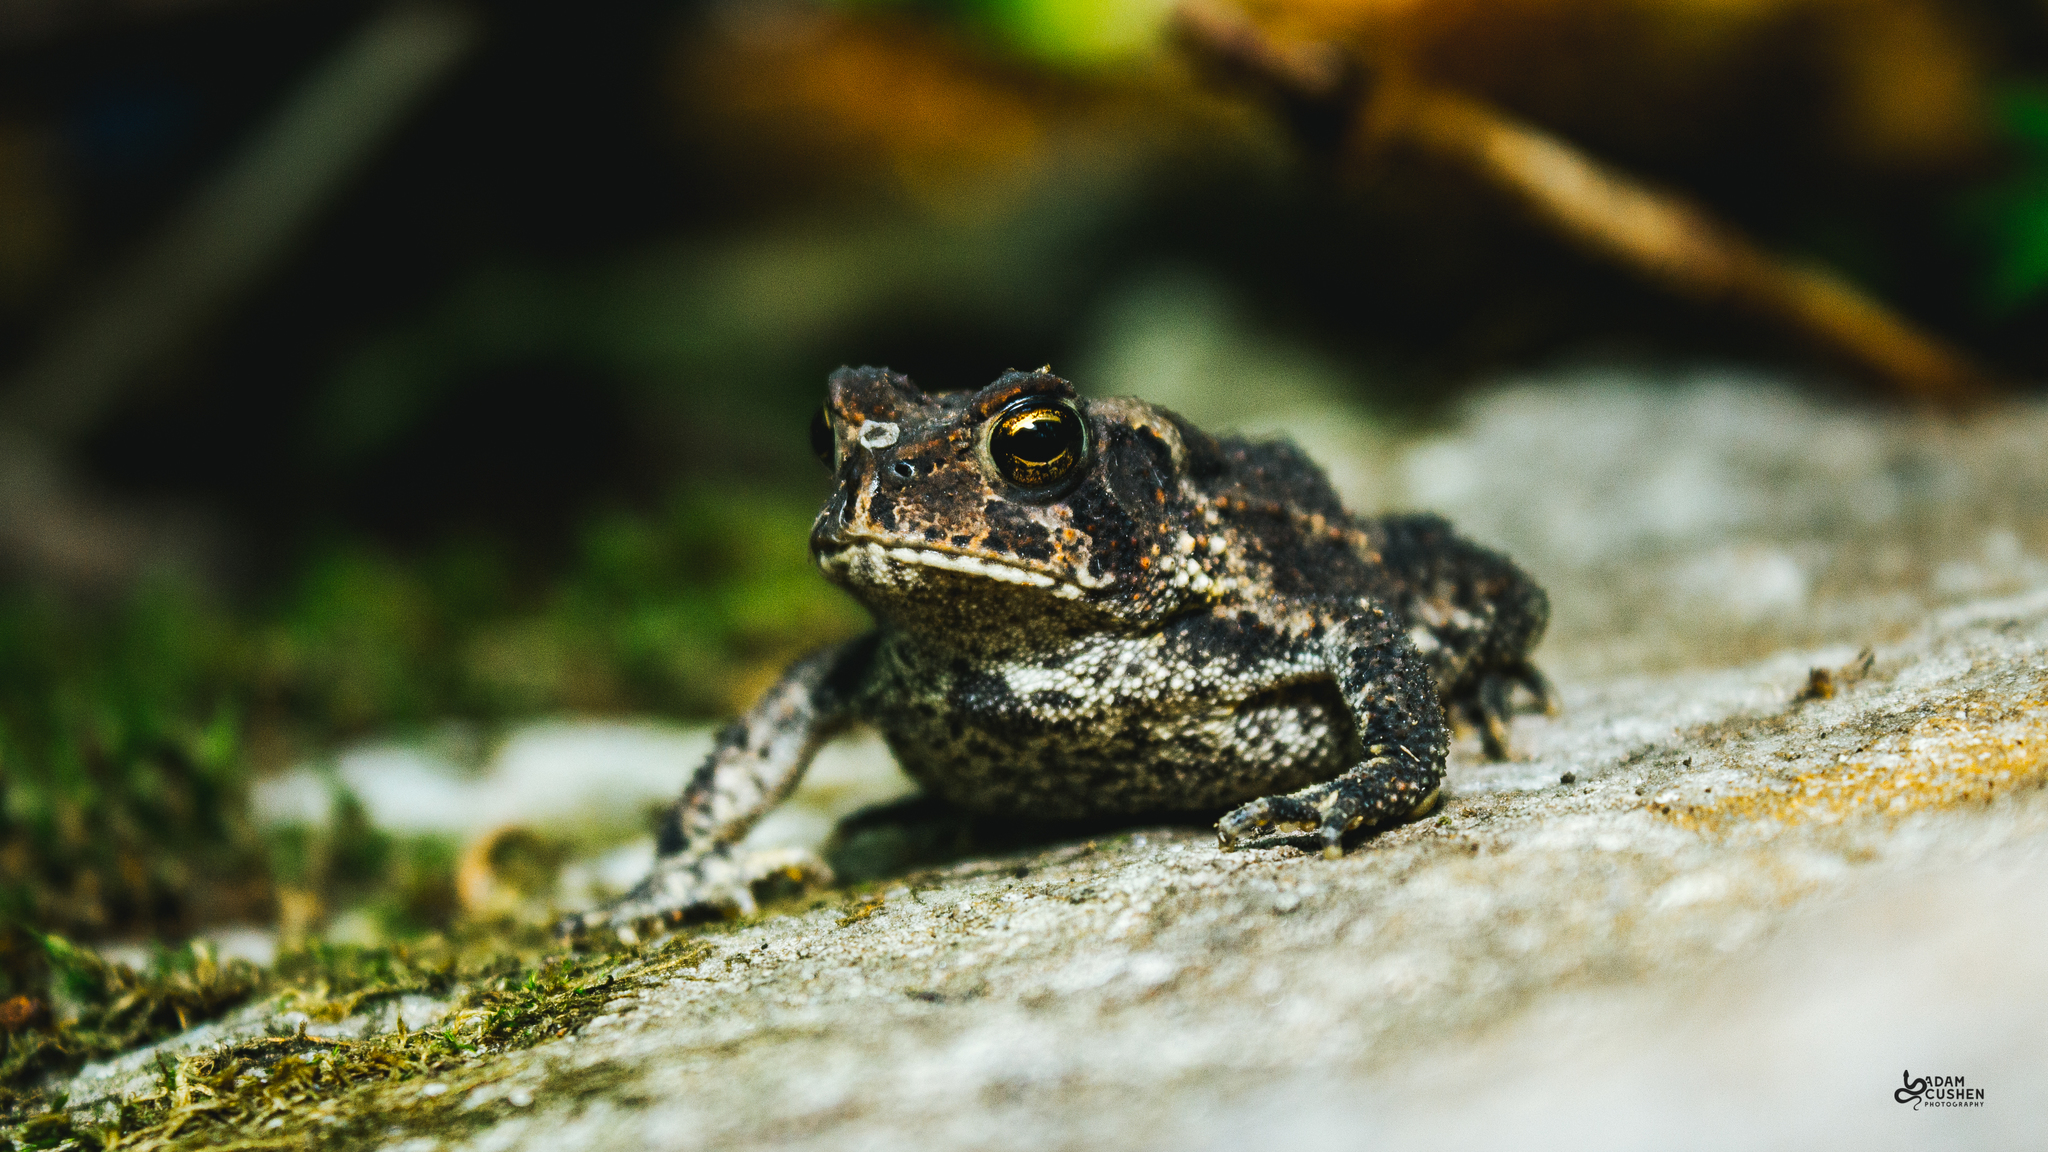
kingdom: Animalia
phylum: Chordata
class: Amphibia
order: Anura
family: Bufonidae
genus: Anaxyrus
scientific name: Anaxyrus americanus
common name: American toad
